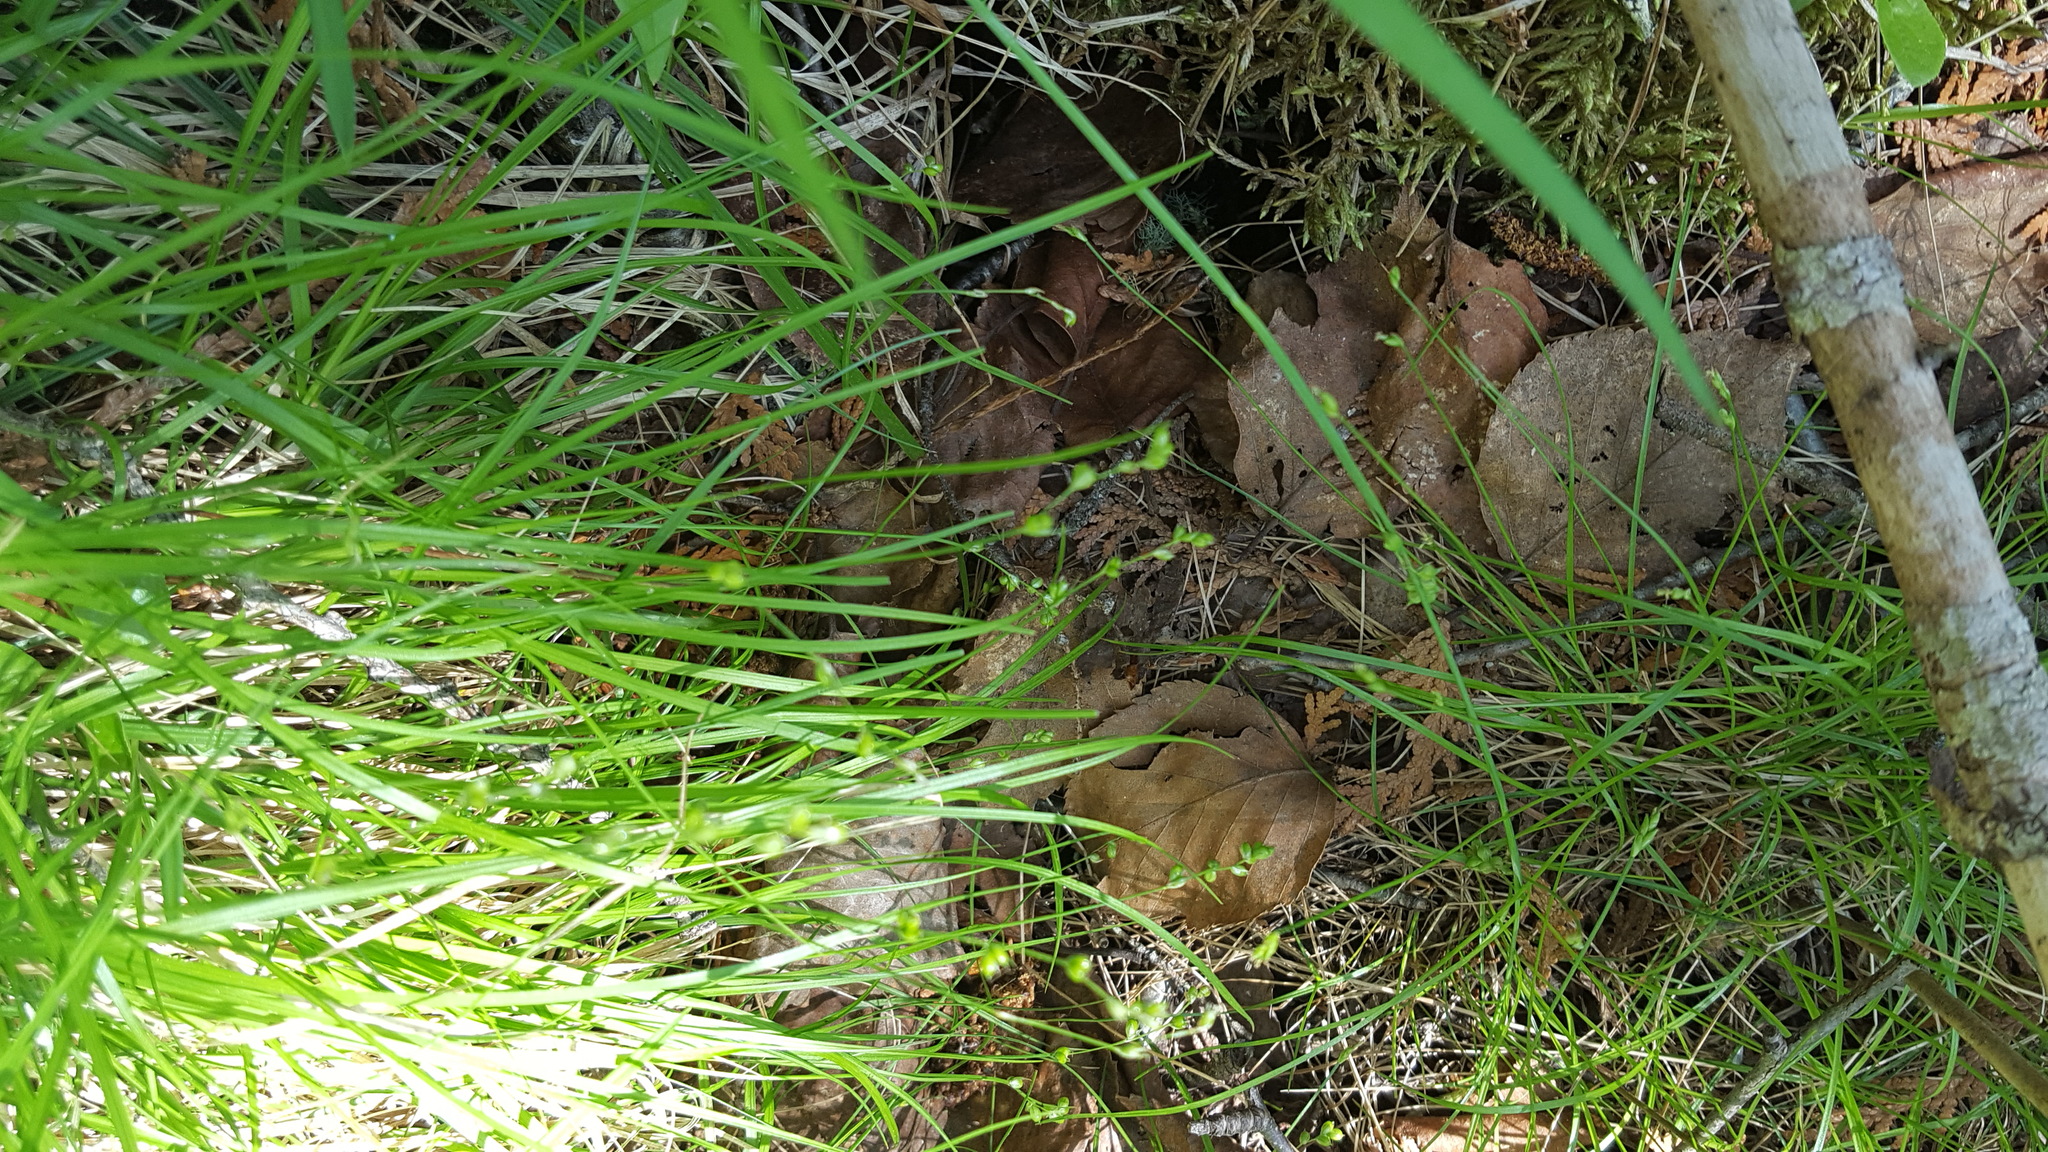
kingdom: Plantae
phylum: Tracheophyta
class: Liliopsida
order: Poales
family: Cyperaceae
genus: Carex
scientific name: Carex disperma
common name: Short-leaved sedge
